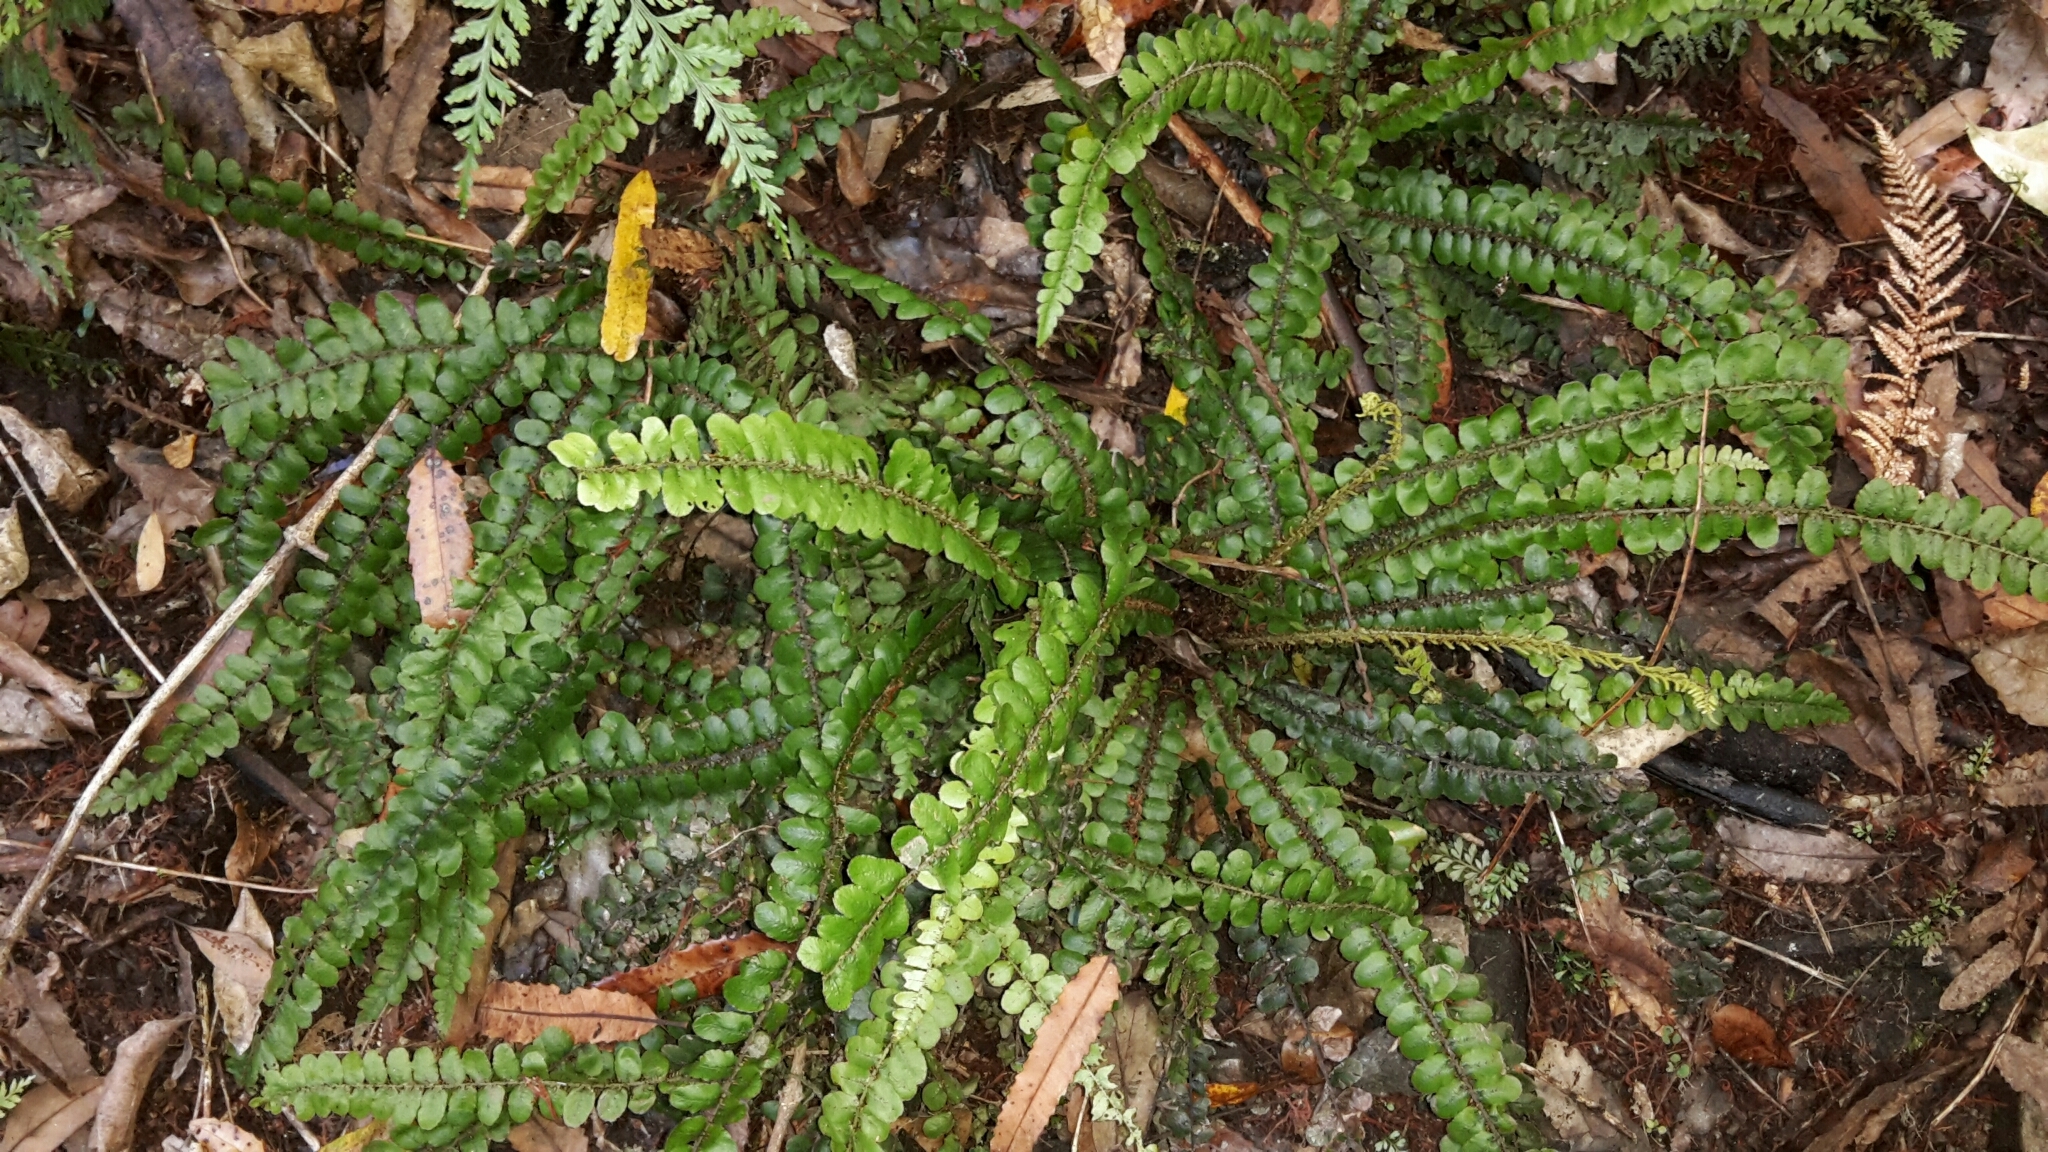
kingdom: Plantae
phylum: Tracheophyta
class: Polypodiopsida
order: Polypodiales
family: Blechnaceae
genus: Cranfillia
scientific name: Cranfillia fluviatilis
